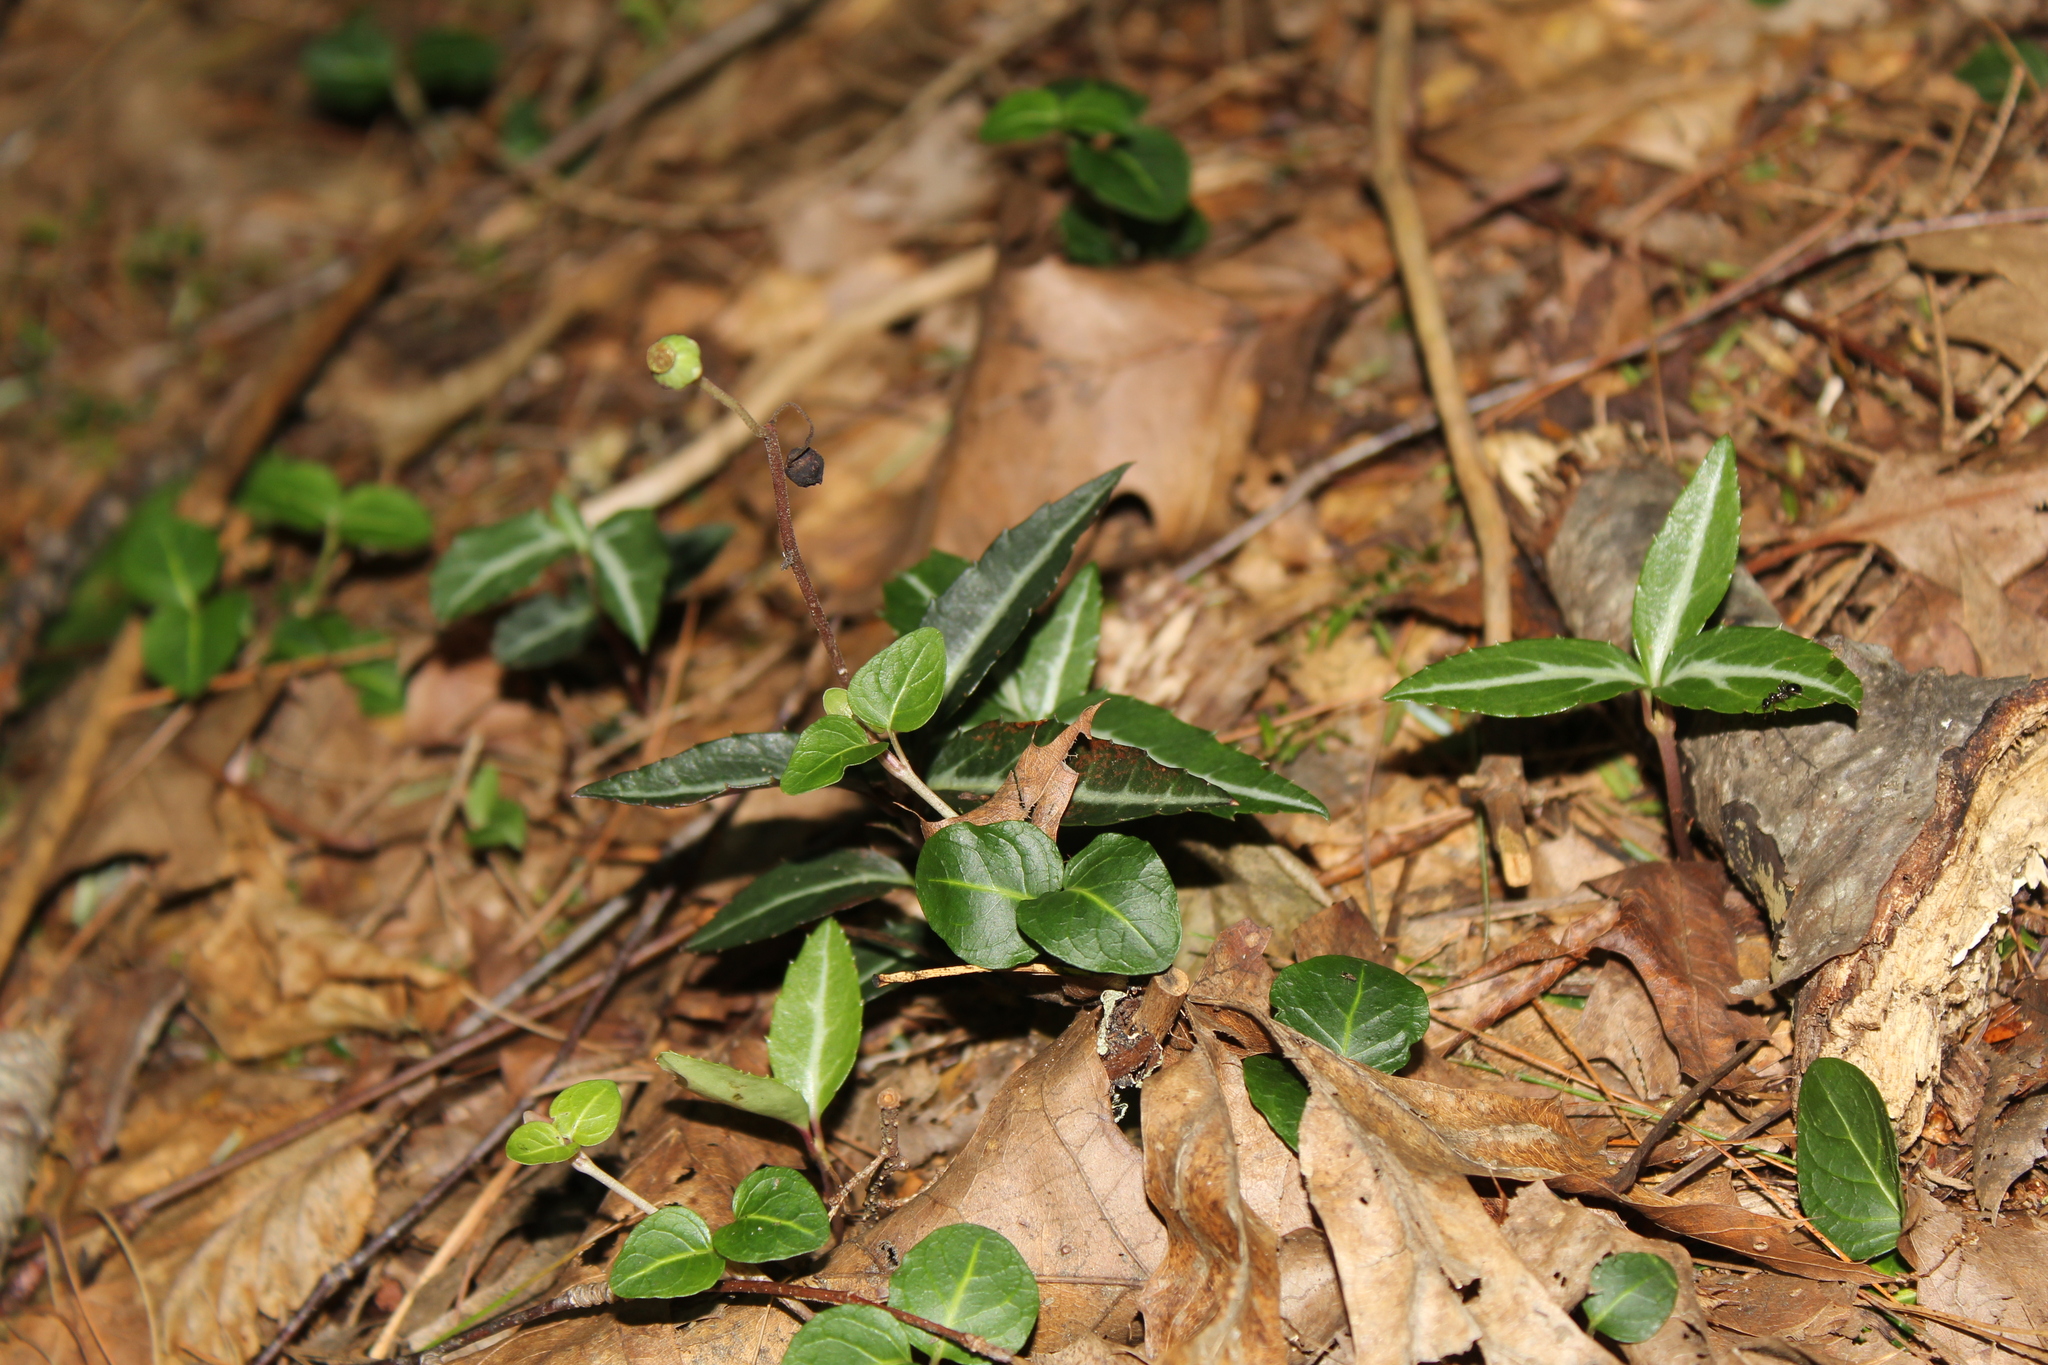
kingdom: Plantae
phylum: Tracheophyta
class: Magnoliopsida
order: Ericales
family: Ericaceae
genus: Chimaphila
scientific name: Chimaphila maculata
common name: Spotted pipsissewa
